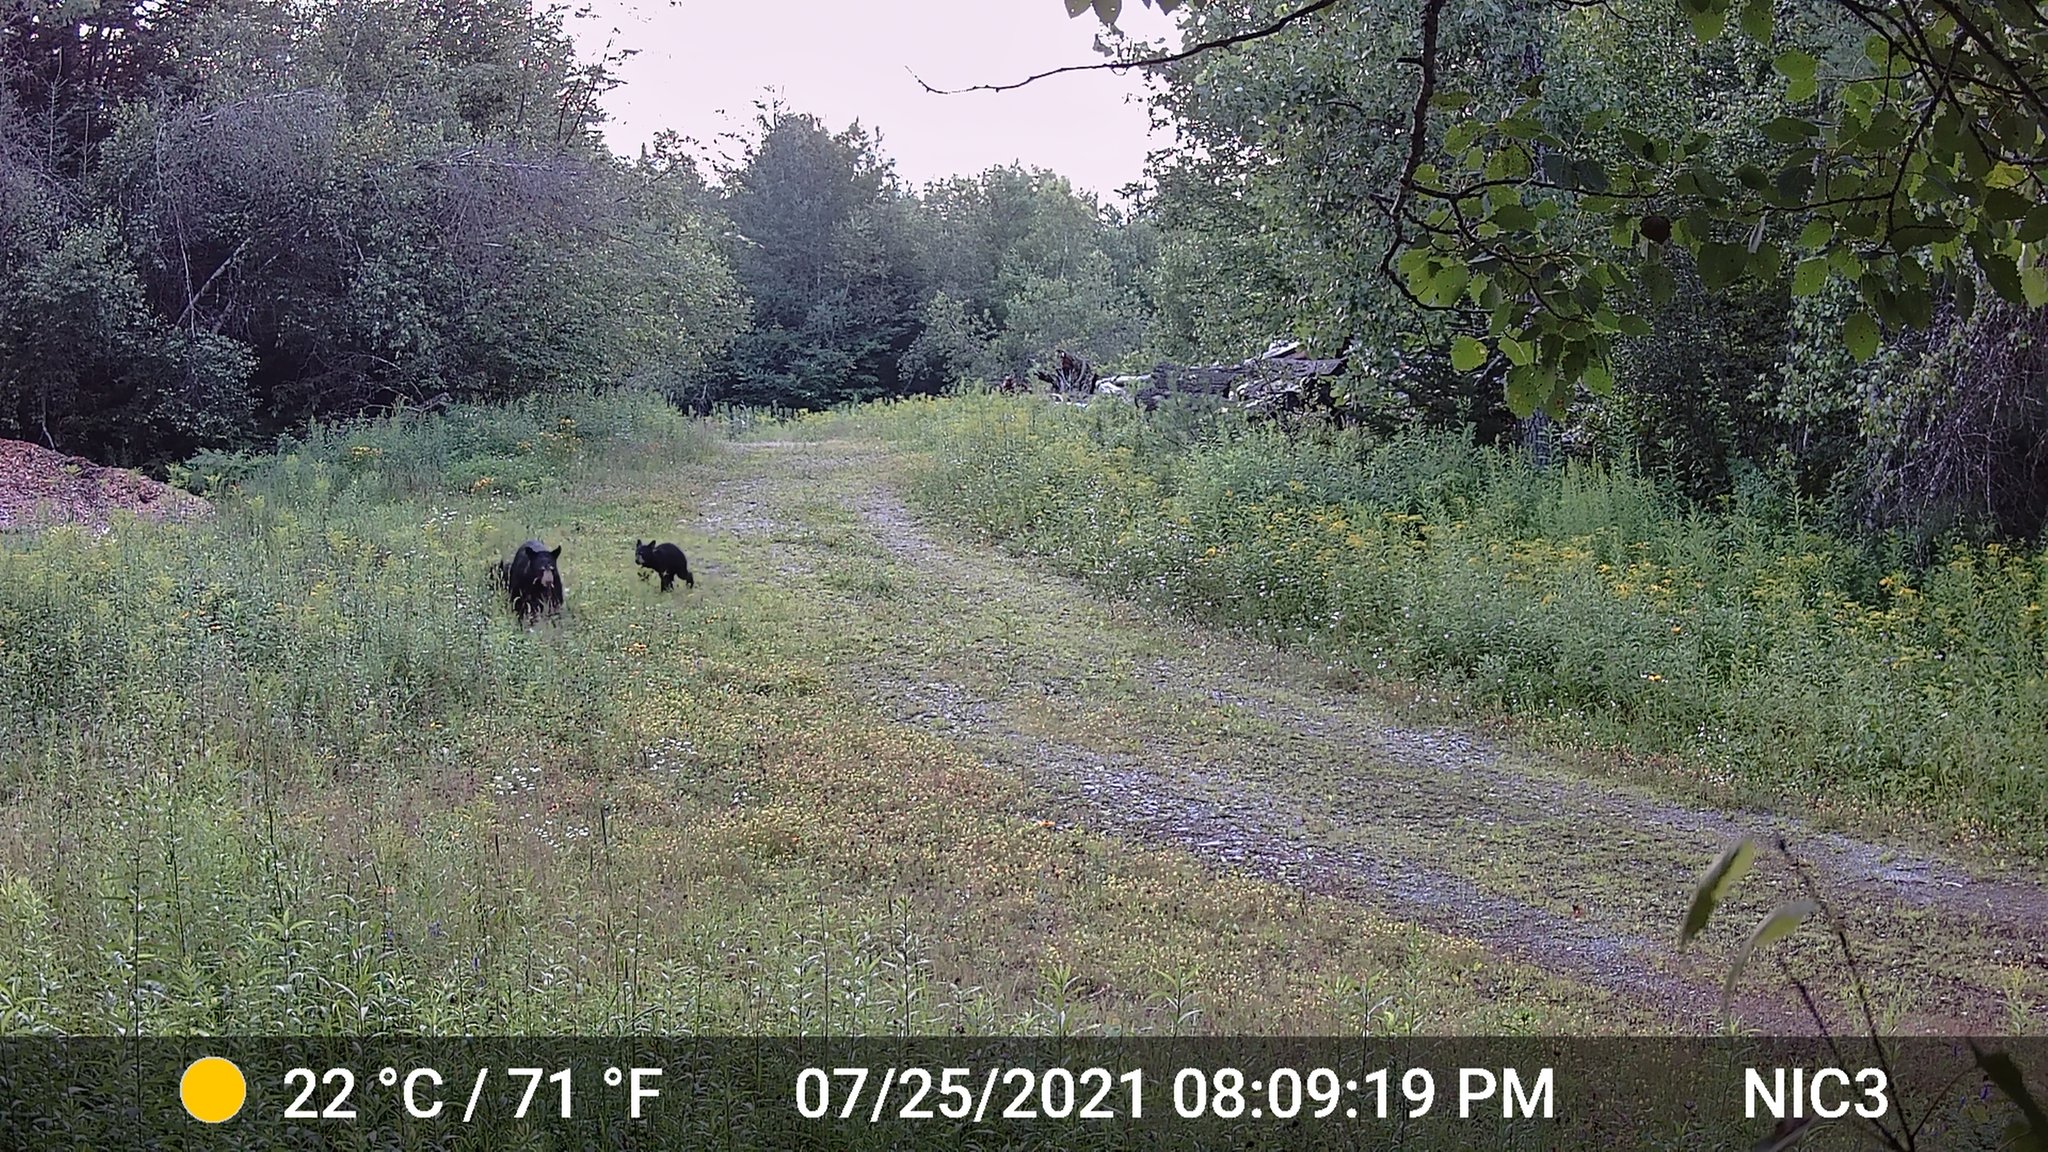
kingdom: Animalia
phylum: Chordata
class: Mammalia
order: Carnivora
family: Ursidae
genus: Ursus
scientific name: Ursus americanus
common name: American black bear
